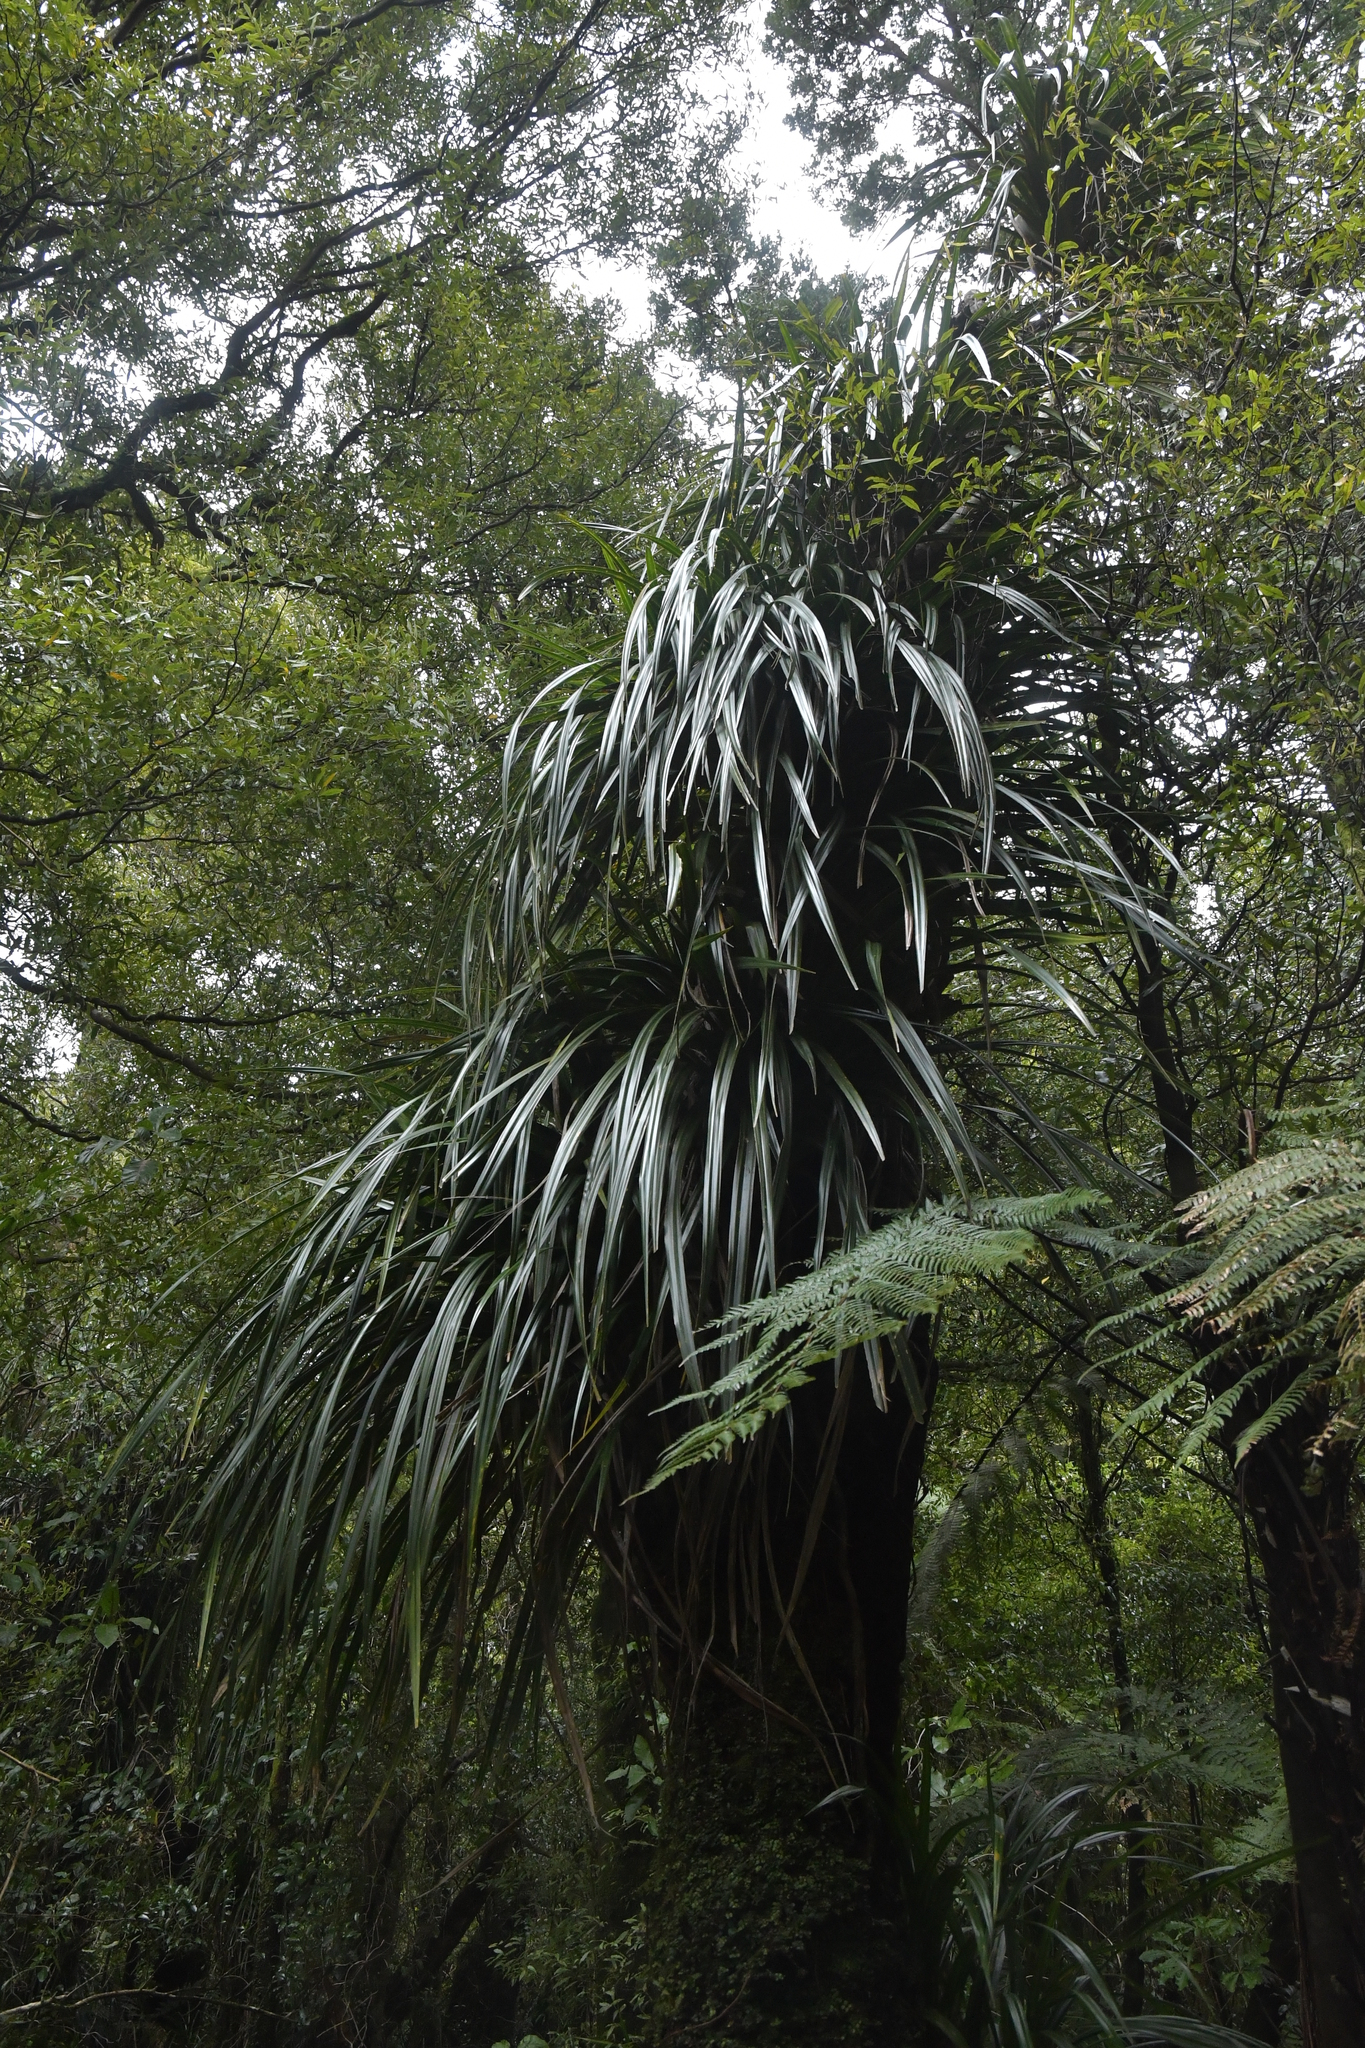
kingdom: Plantae
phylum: Tracheophyta
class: Liliopsida
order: Pandanales
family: Pandanaceae
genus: Freycinetia
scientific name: Freycinetia banksii
